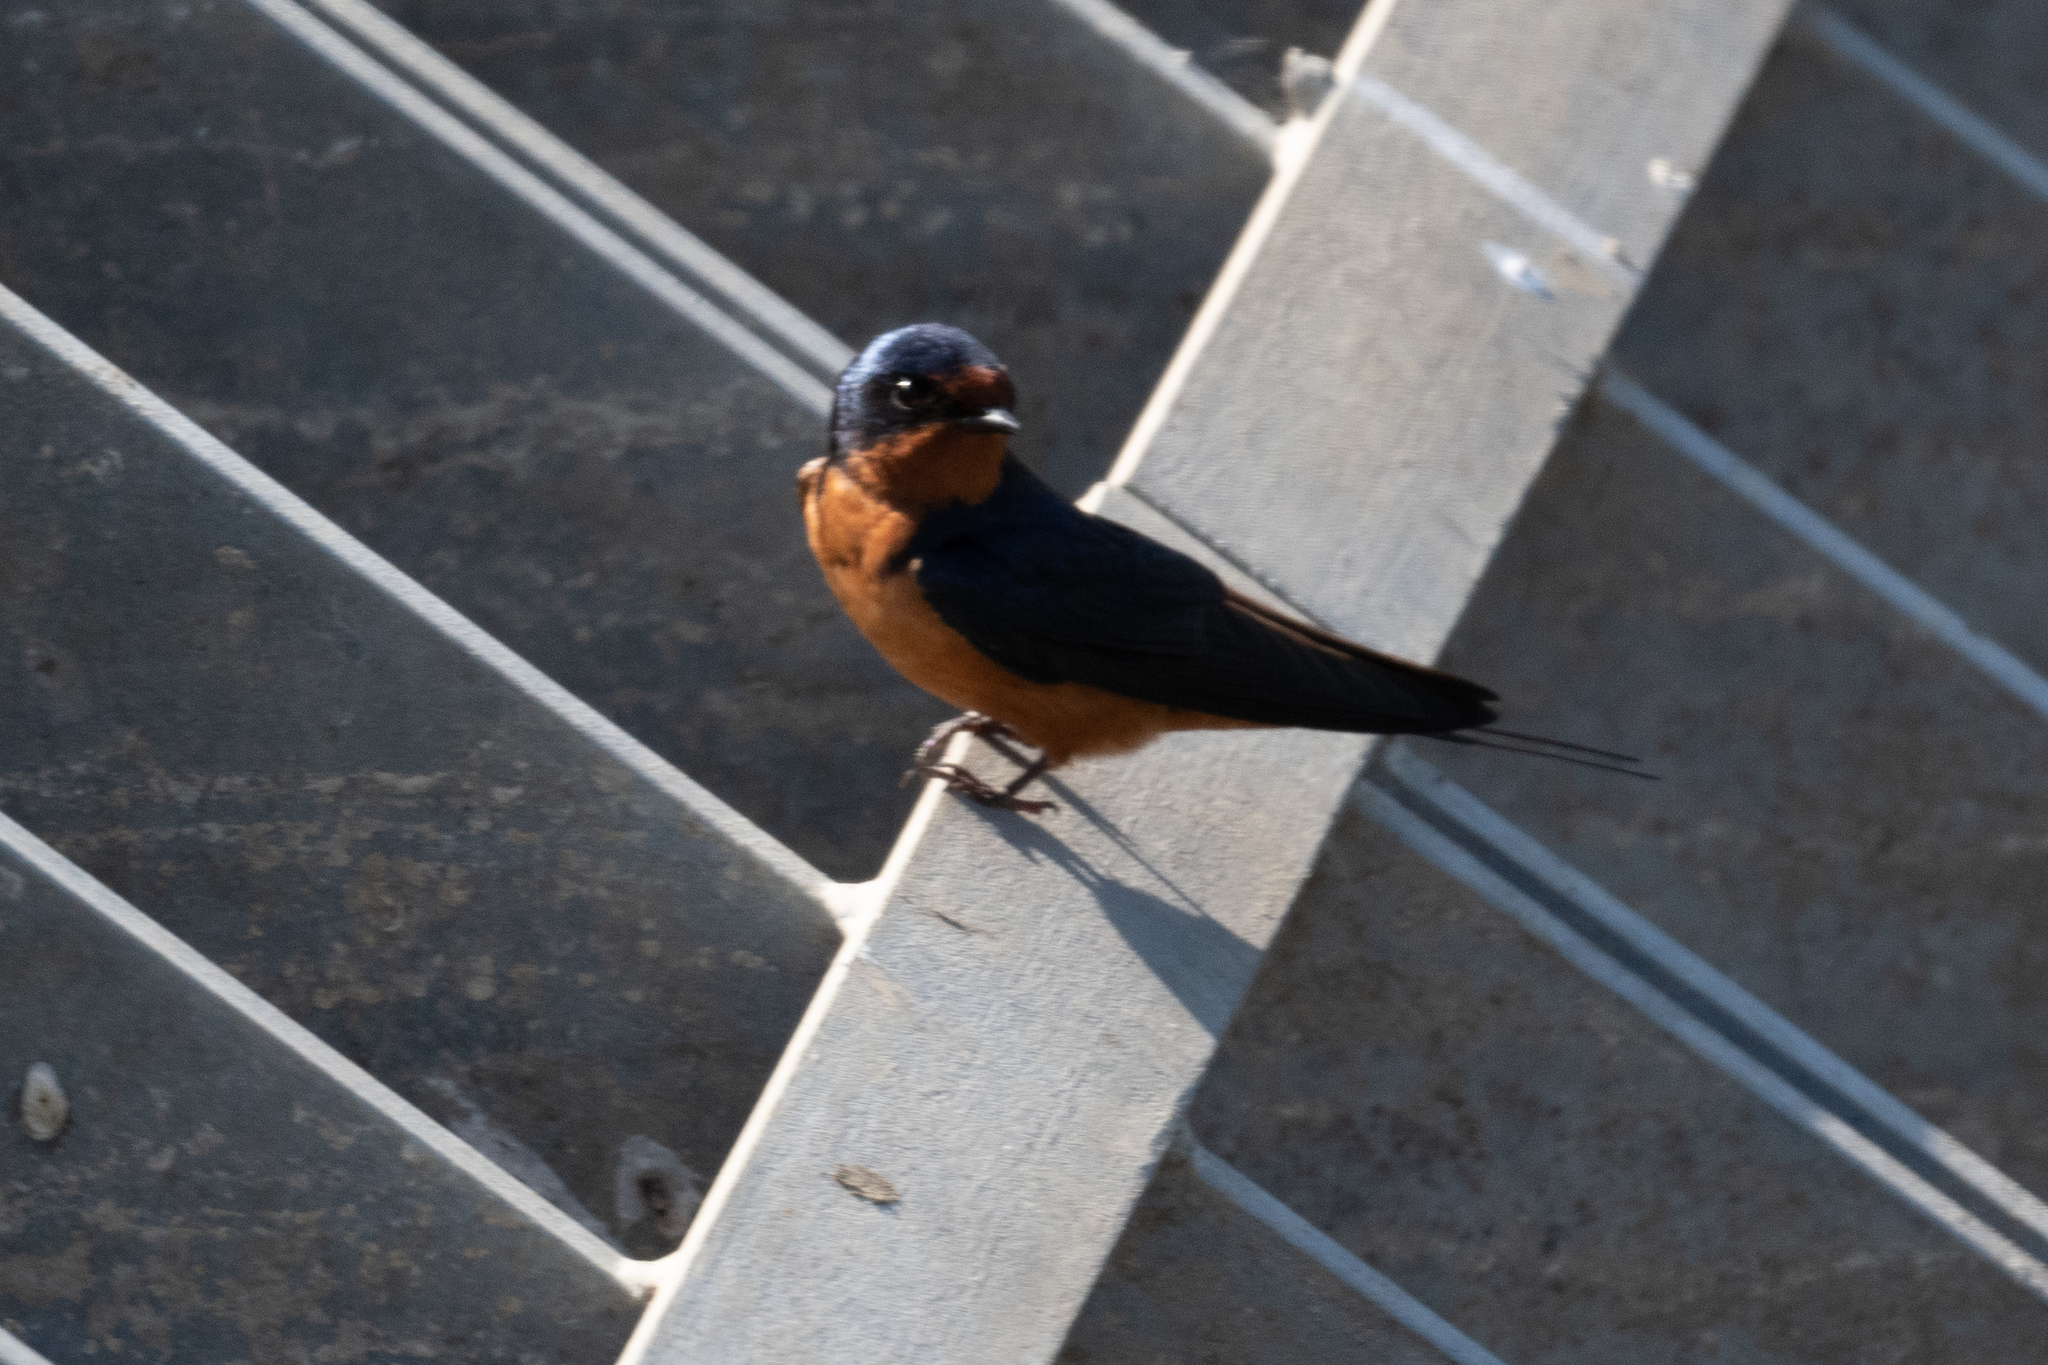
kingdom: Animalia
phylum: Chordata
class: Aves
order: Passeriformes
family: Hirundinidae
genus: Hirundo
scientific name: Hirundo rustica
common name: Barn swallow
